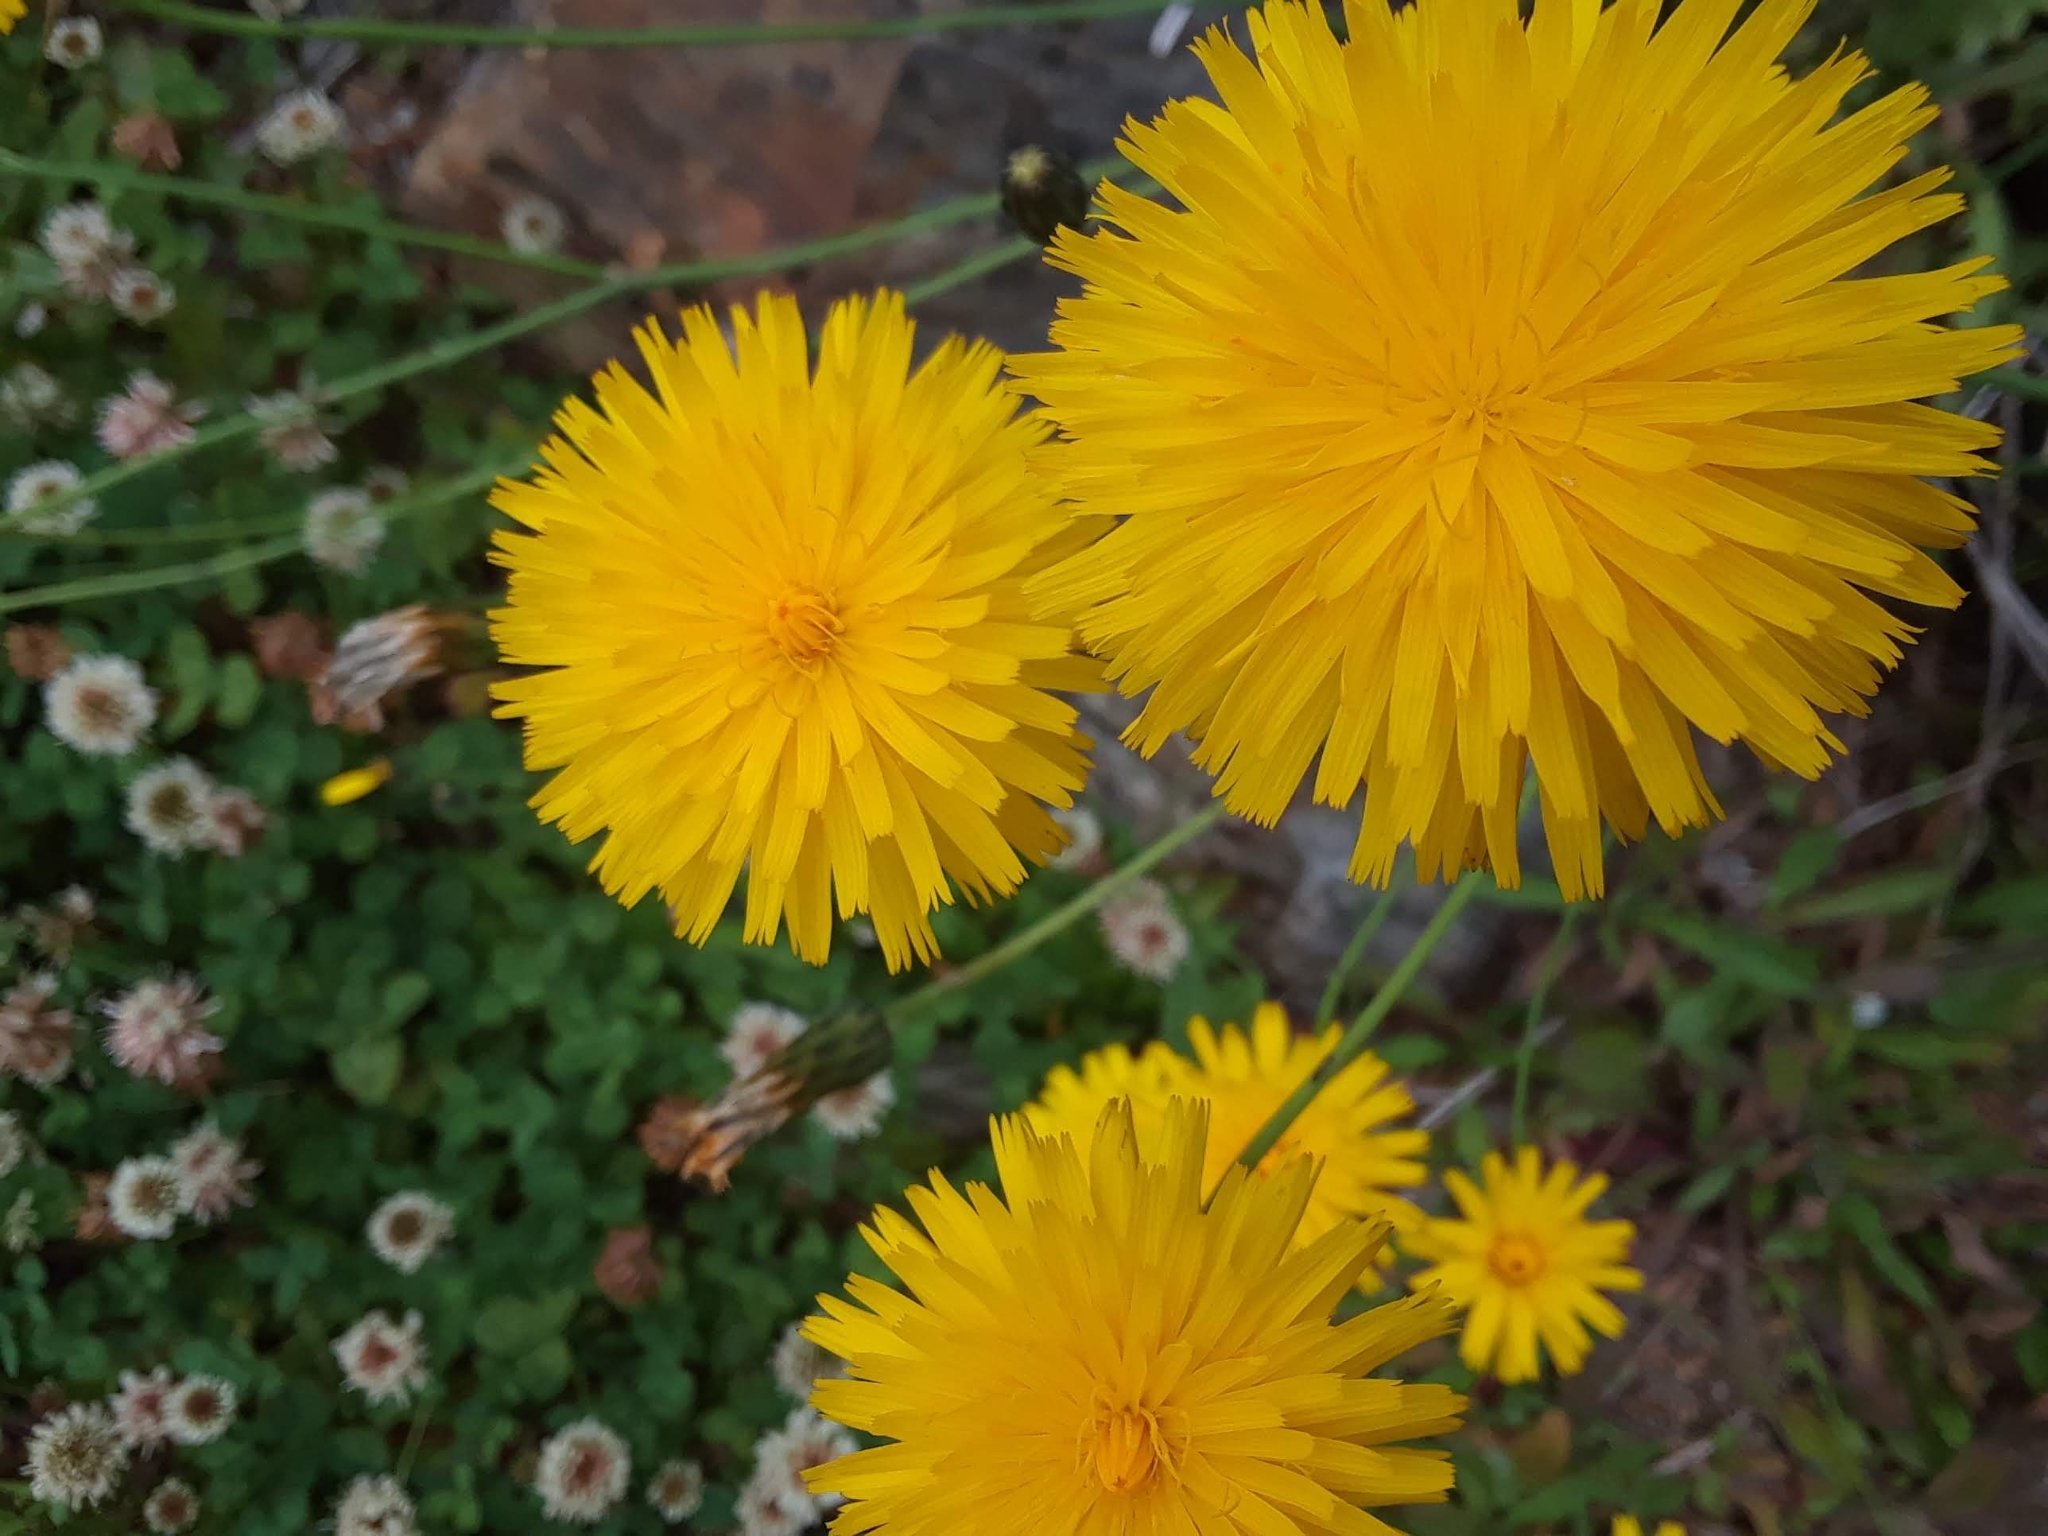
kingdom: Plantae
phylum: Tracheophyta
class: Magnoliopsida
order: Asterales
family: Asteraceae
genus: Taraxacum
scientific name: Taraxacum officinale
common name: Common dandelion
